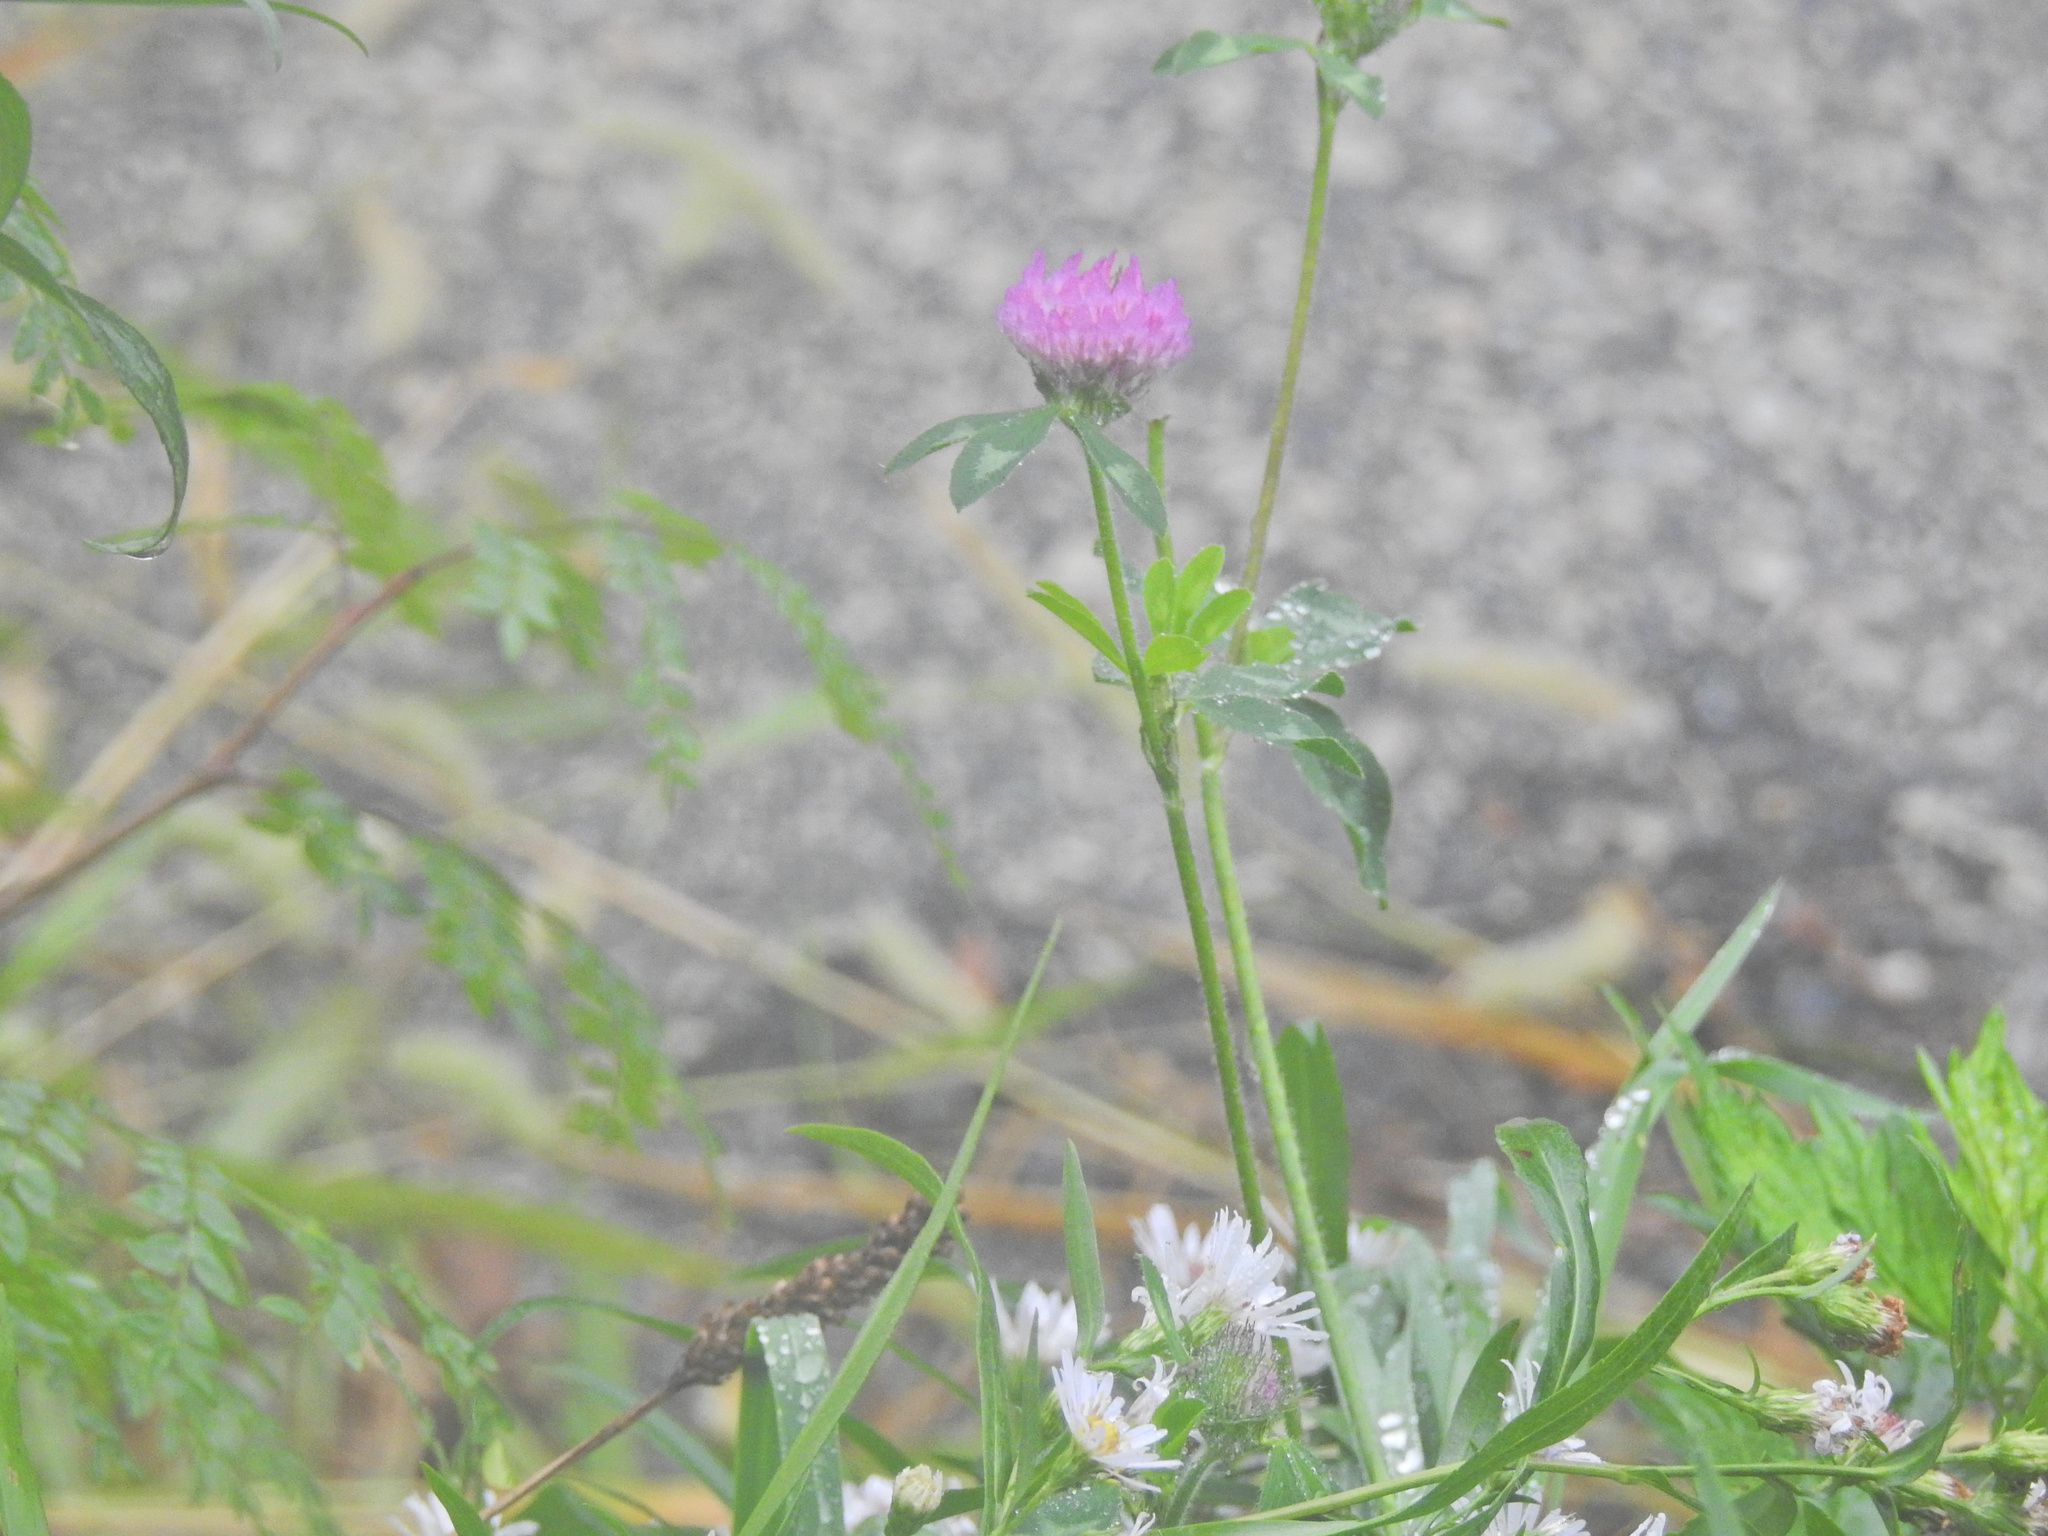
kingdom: Plantae
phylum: Tracheophyta
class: Magnoliopsida
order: Fabales
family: Fabaceae
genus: Trifolium
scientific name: Trifolium pratense
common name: Red clover
